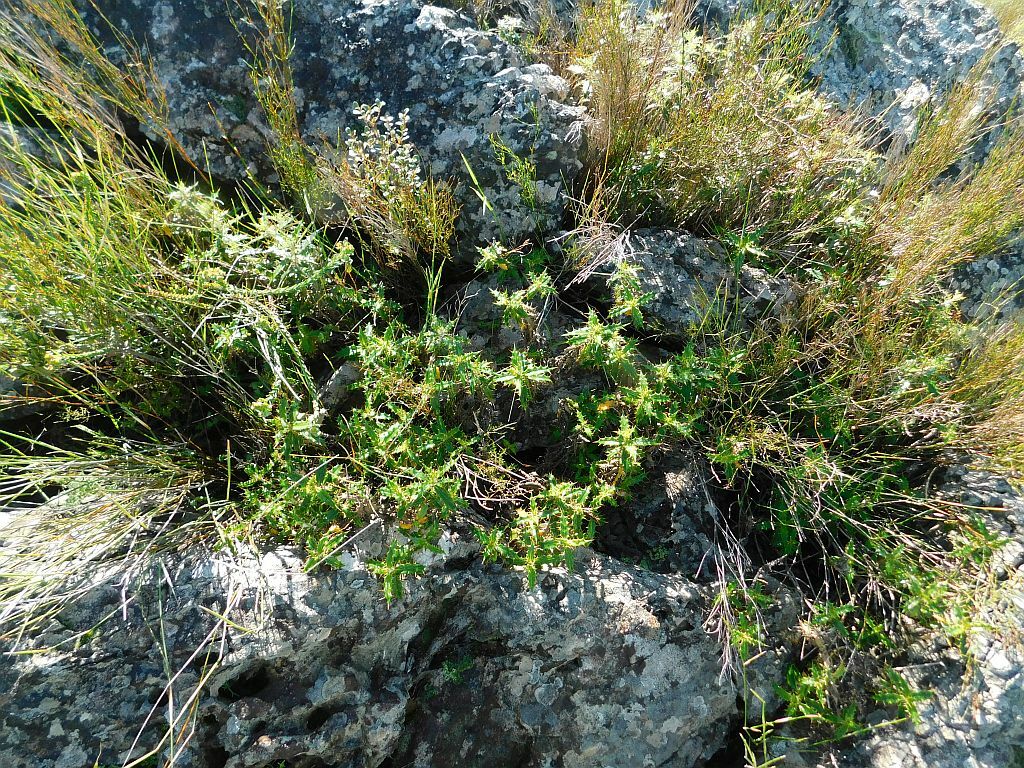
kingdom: Plantae
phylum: Tracheophyta
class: Magnoliopsida
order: Asterales
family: Asteraceae
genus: Berkheya
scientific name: Berkheya barbata
